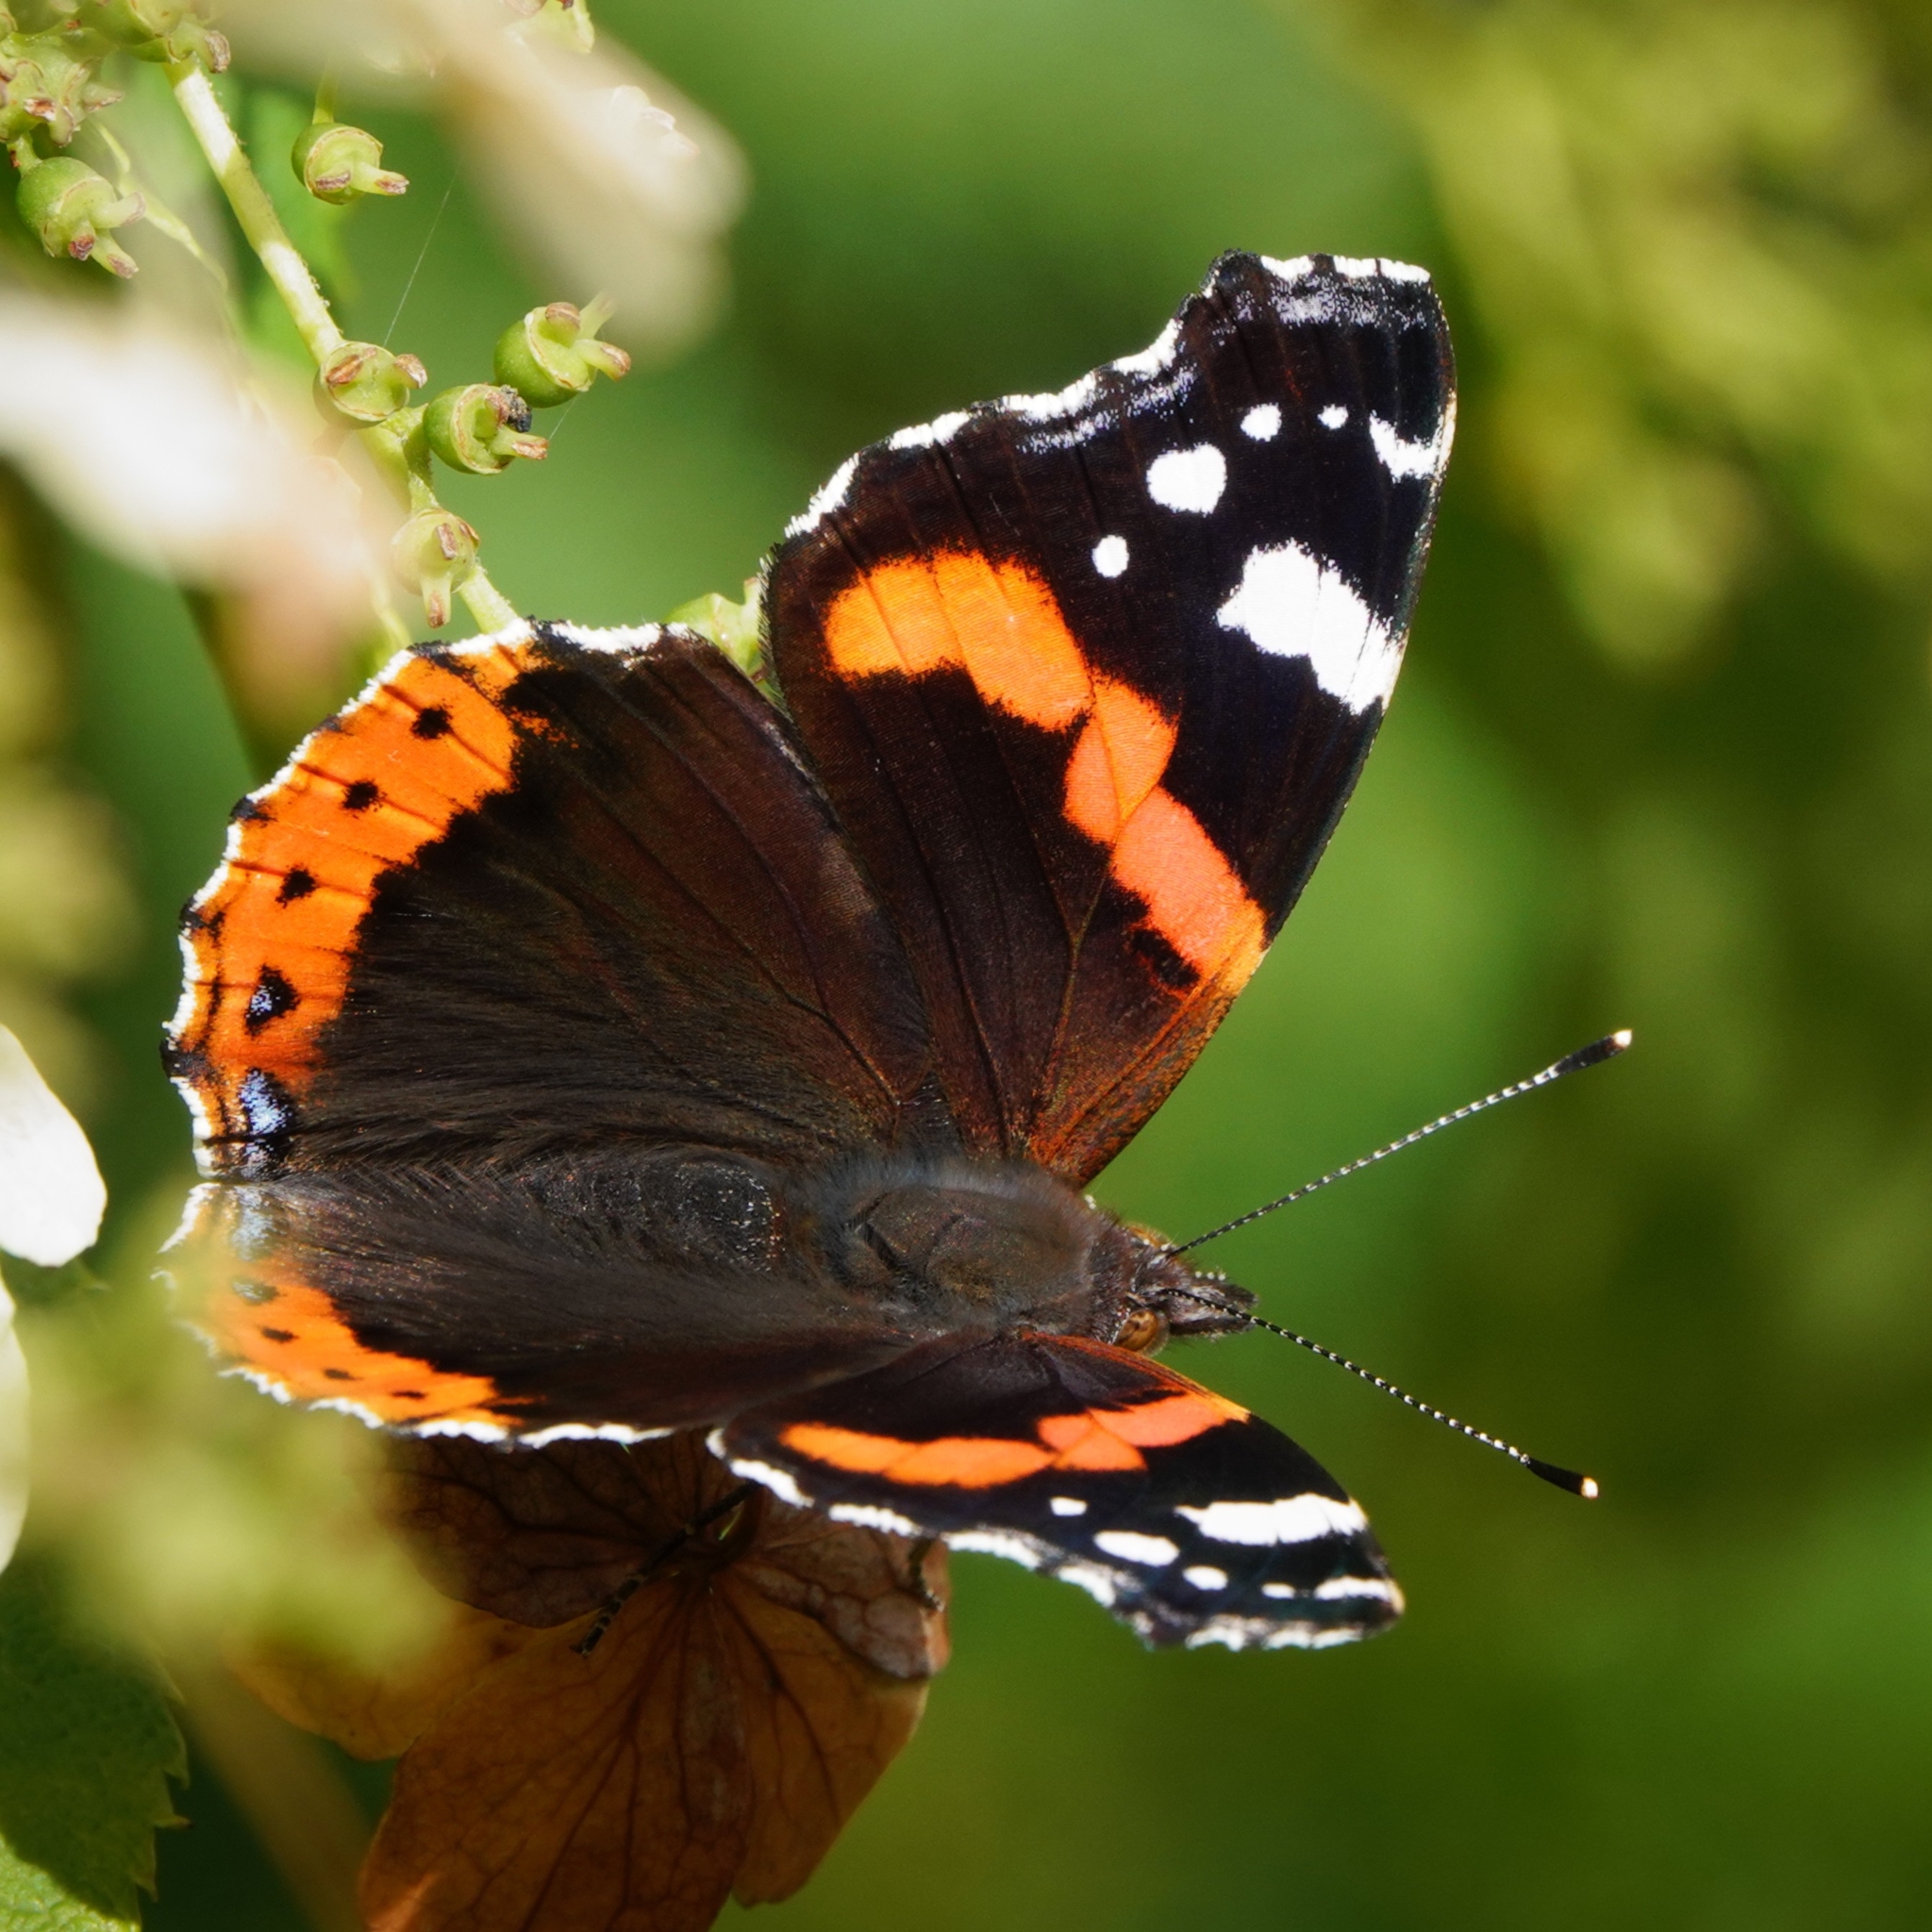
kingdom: Animalia
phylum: Arthropoda
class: Insecta
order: Lepidoptera
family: Nymphalidae
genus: Vanessa
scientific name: Vanessa atalanta
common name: Red admiral
